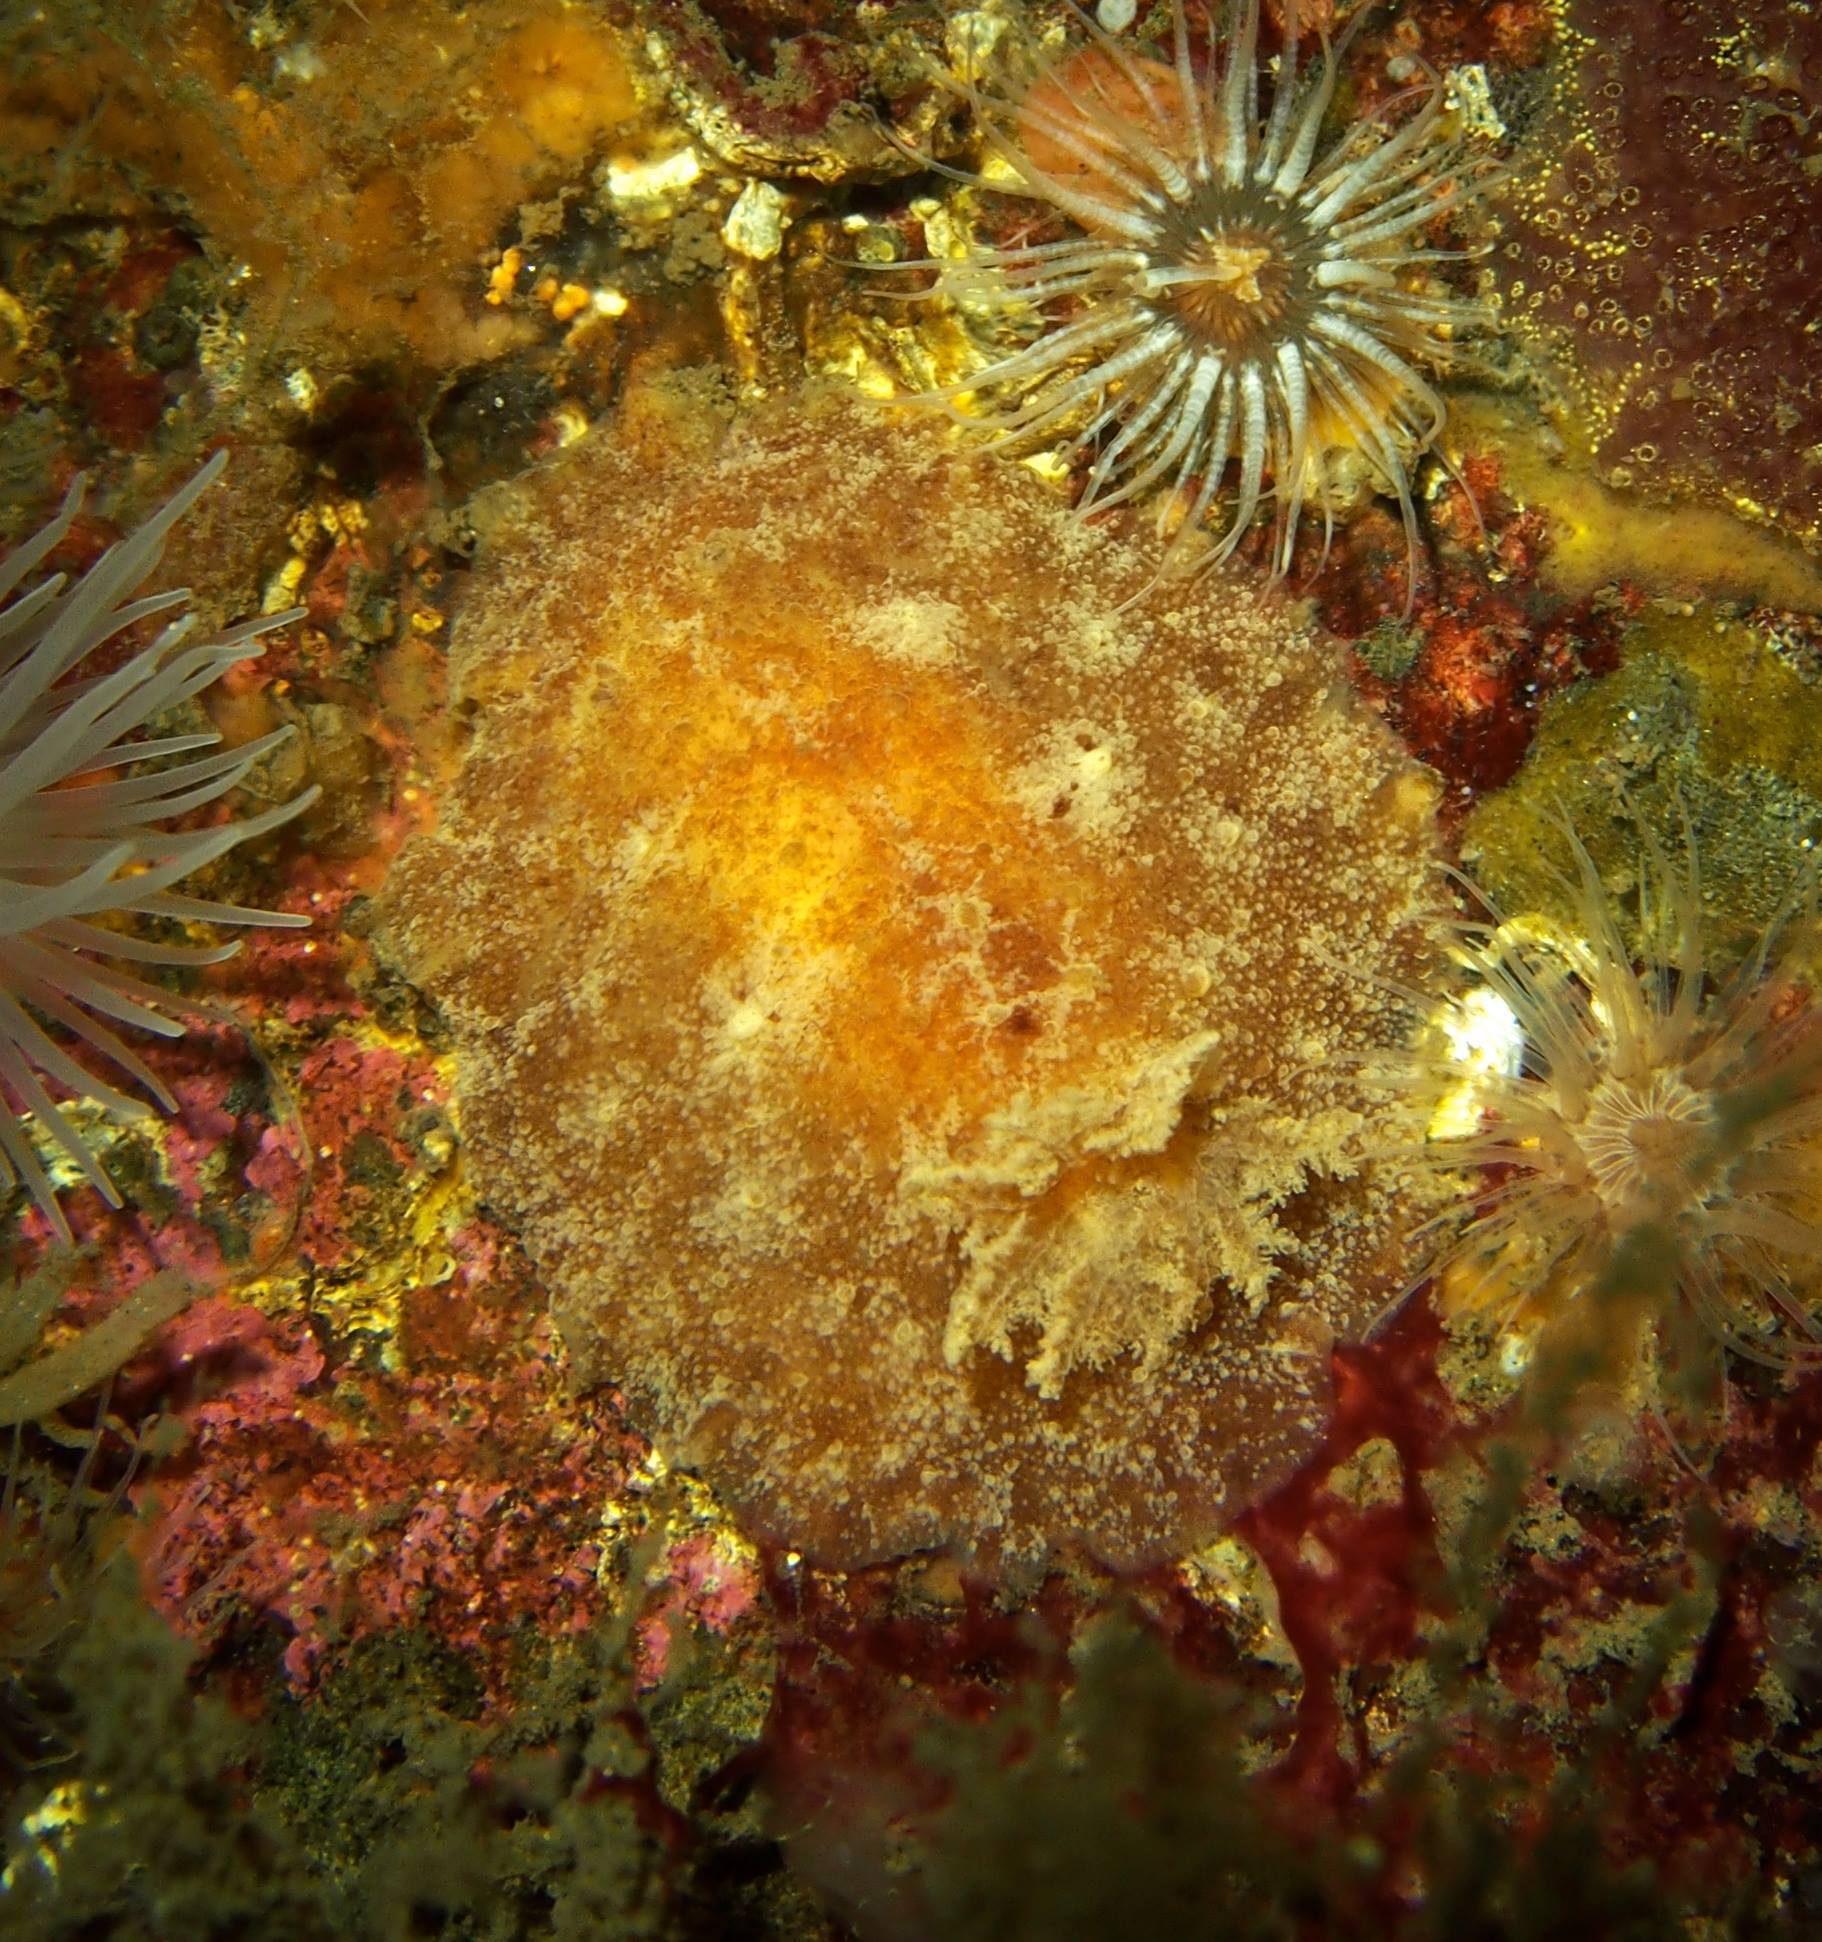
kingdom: Animalia
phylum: Mollusca
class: Gastropoda
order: Nudibranchia
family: Discodorididae
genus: Geitodoris
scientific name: Geitodoris planata
